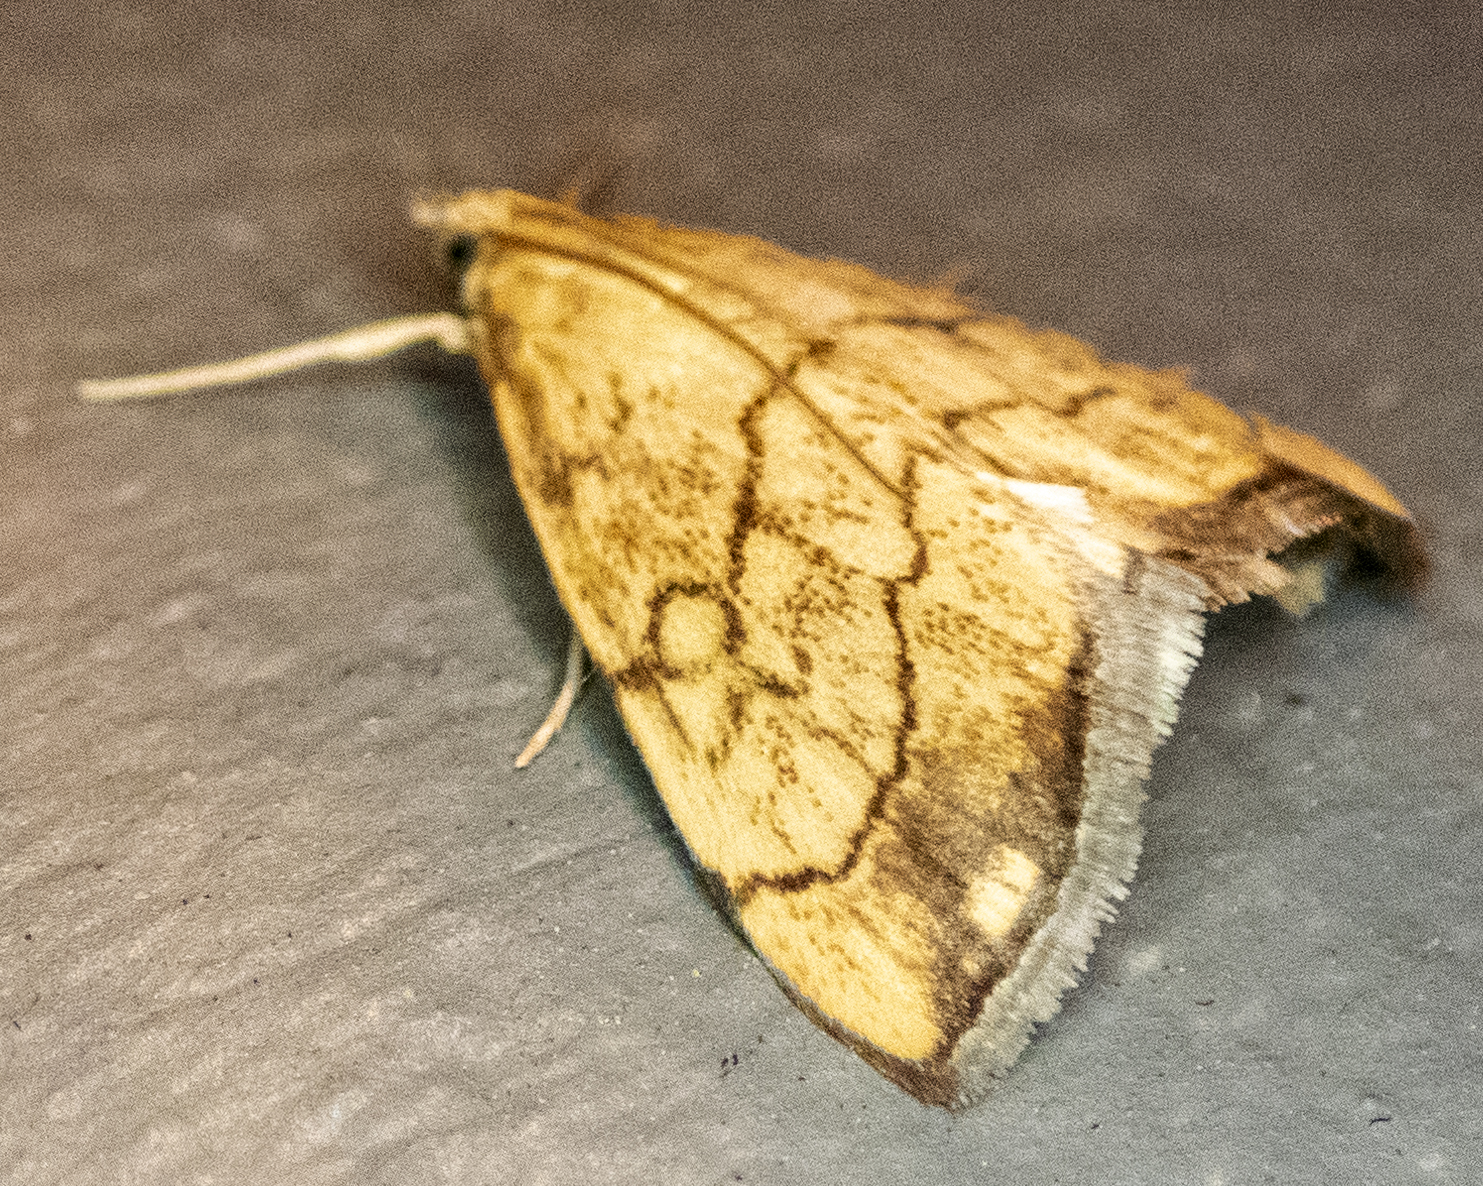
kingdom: Animalia
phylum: Arthropoda
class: Insecta
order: Lepidoptera
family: Crambidae
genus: Evergestis
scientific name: Evergestis pallidata
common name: Chequered pearl
